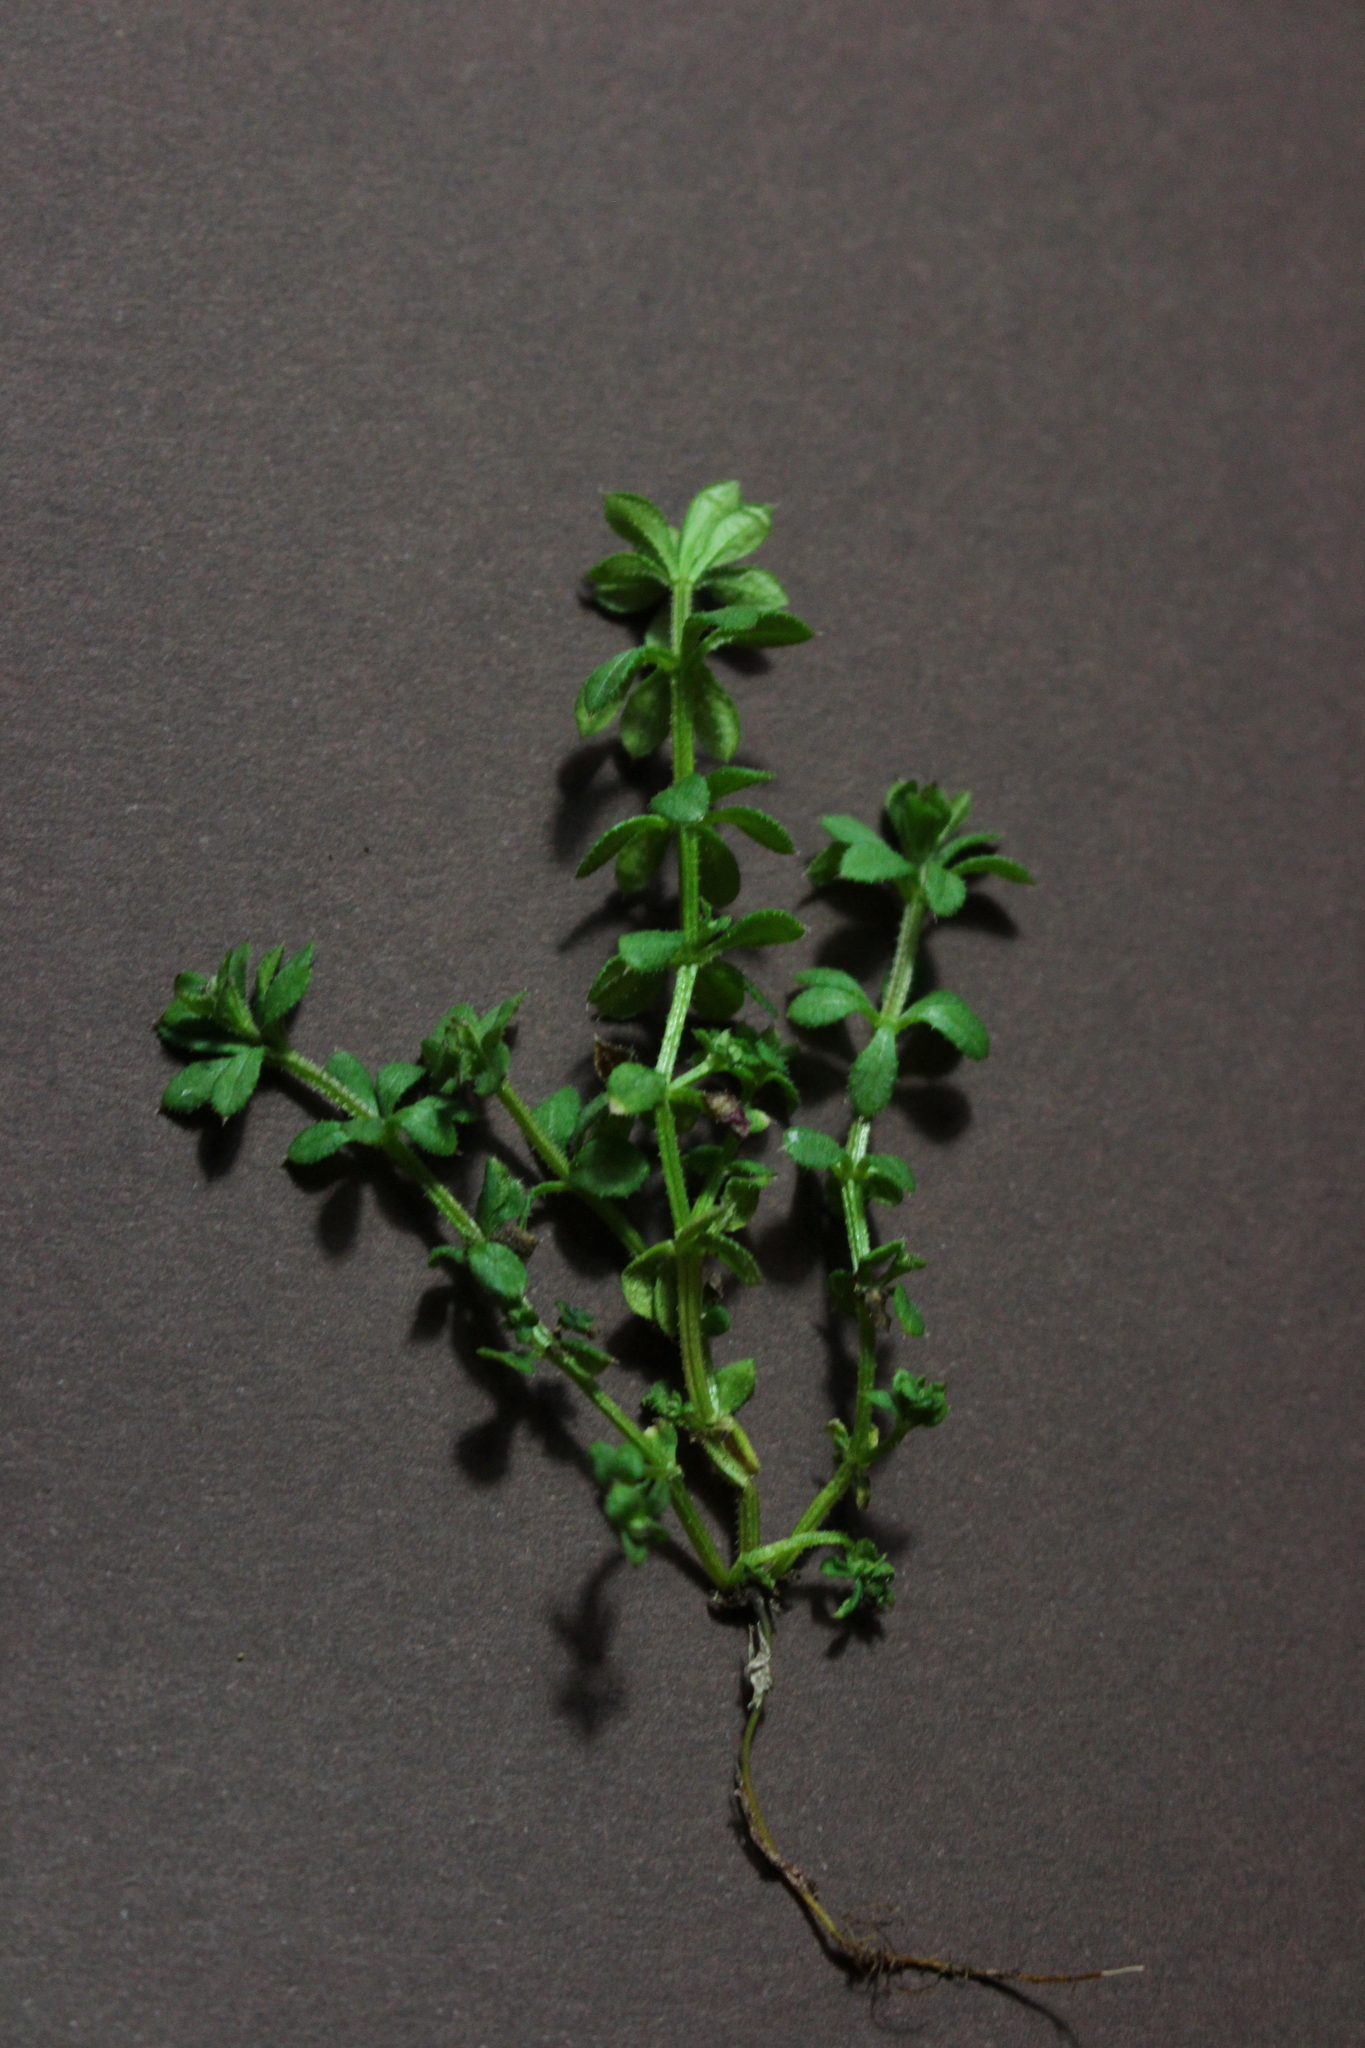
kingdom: Plantae
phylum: Tracheophyta
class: Magnoliopsida
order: Gentianales
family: Rubiaceae
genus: Galium
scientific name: Galium aparine
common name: Cleavers
